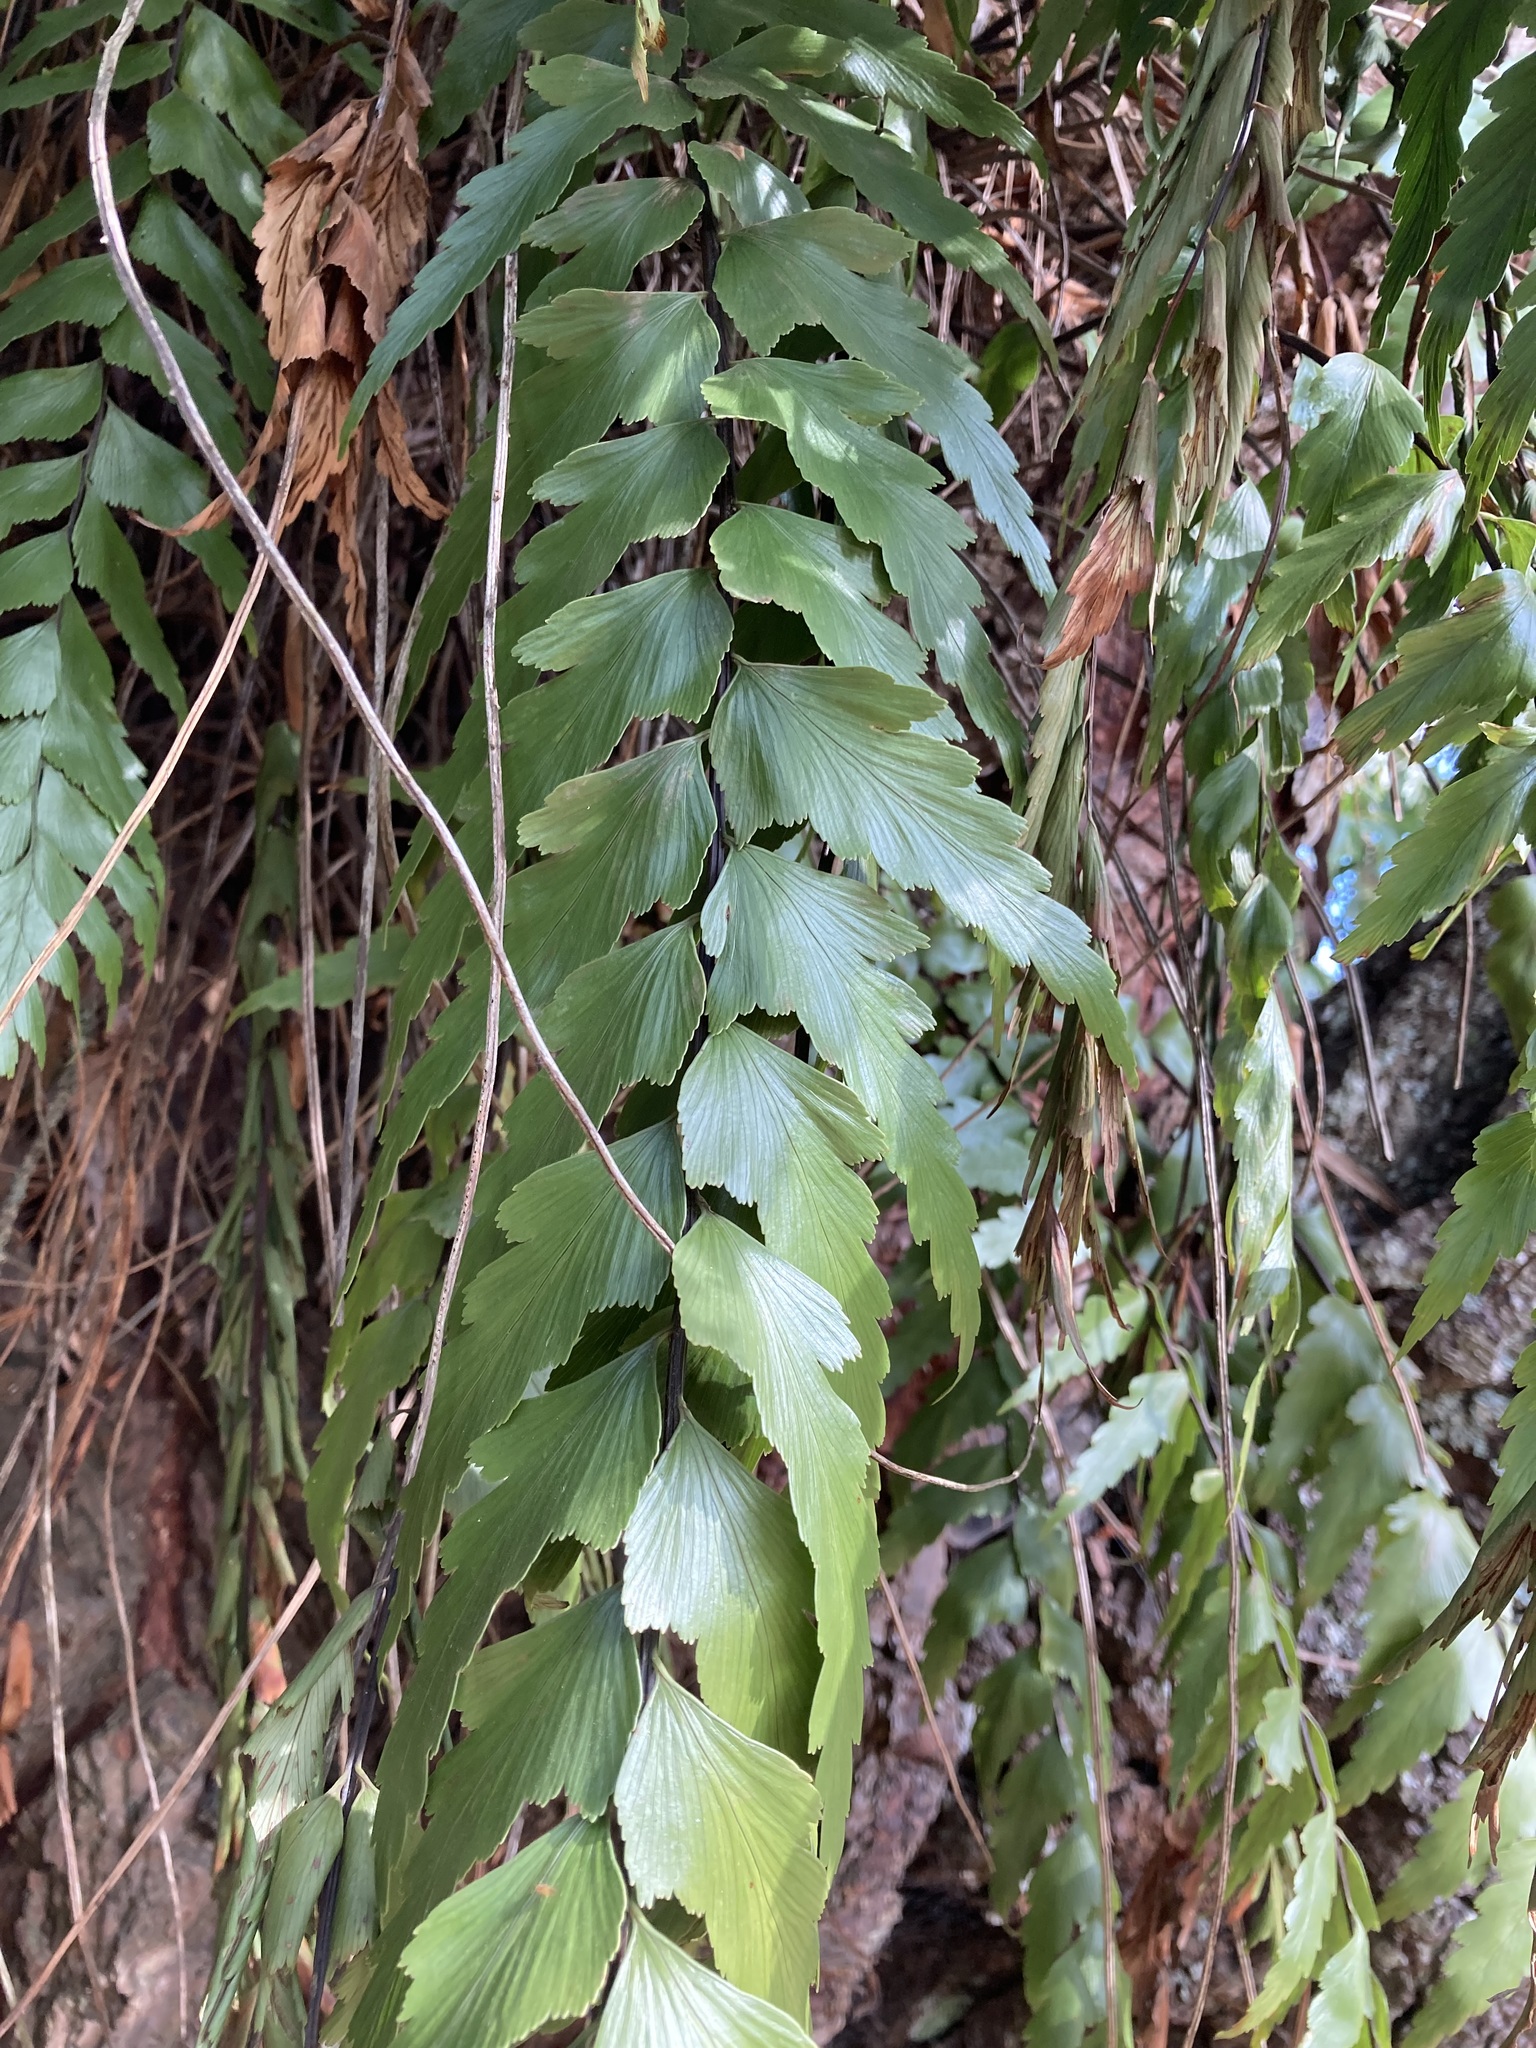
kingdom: Plantae
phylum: Tracheophyta
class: Polypodiopsida
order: Polypodiales
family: Aspleniaceae
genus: Asplenium
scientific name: Asplenium polyodon
